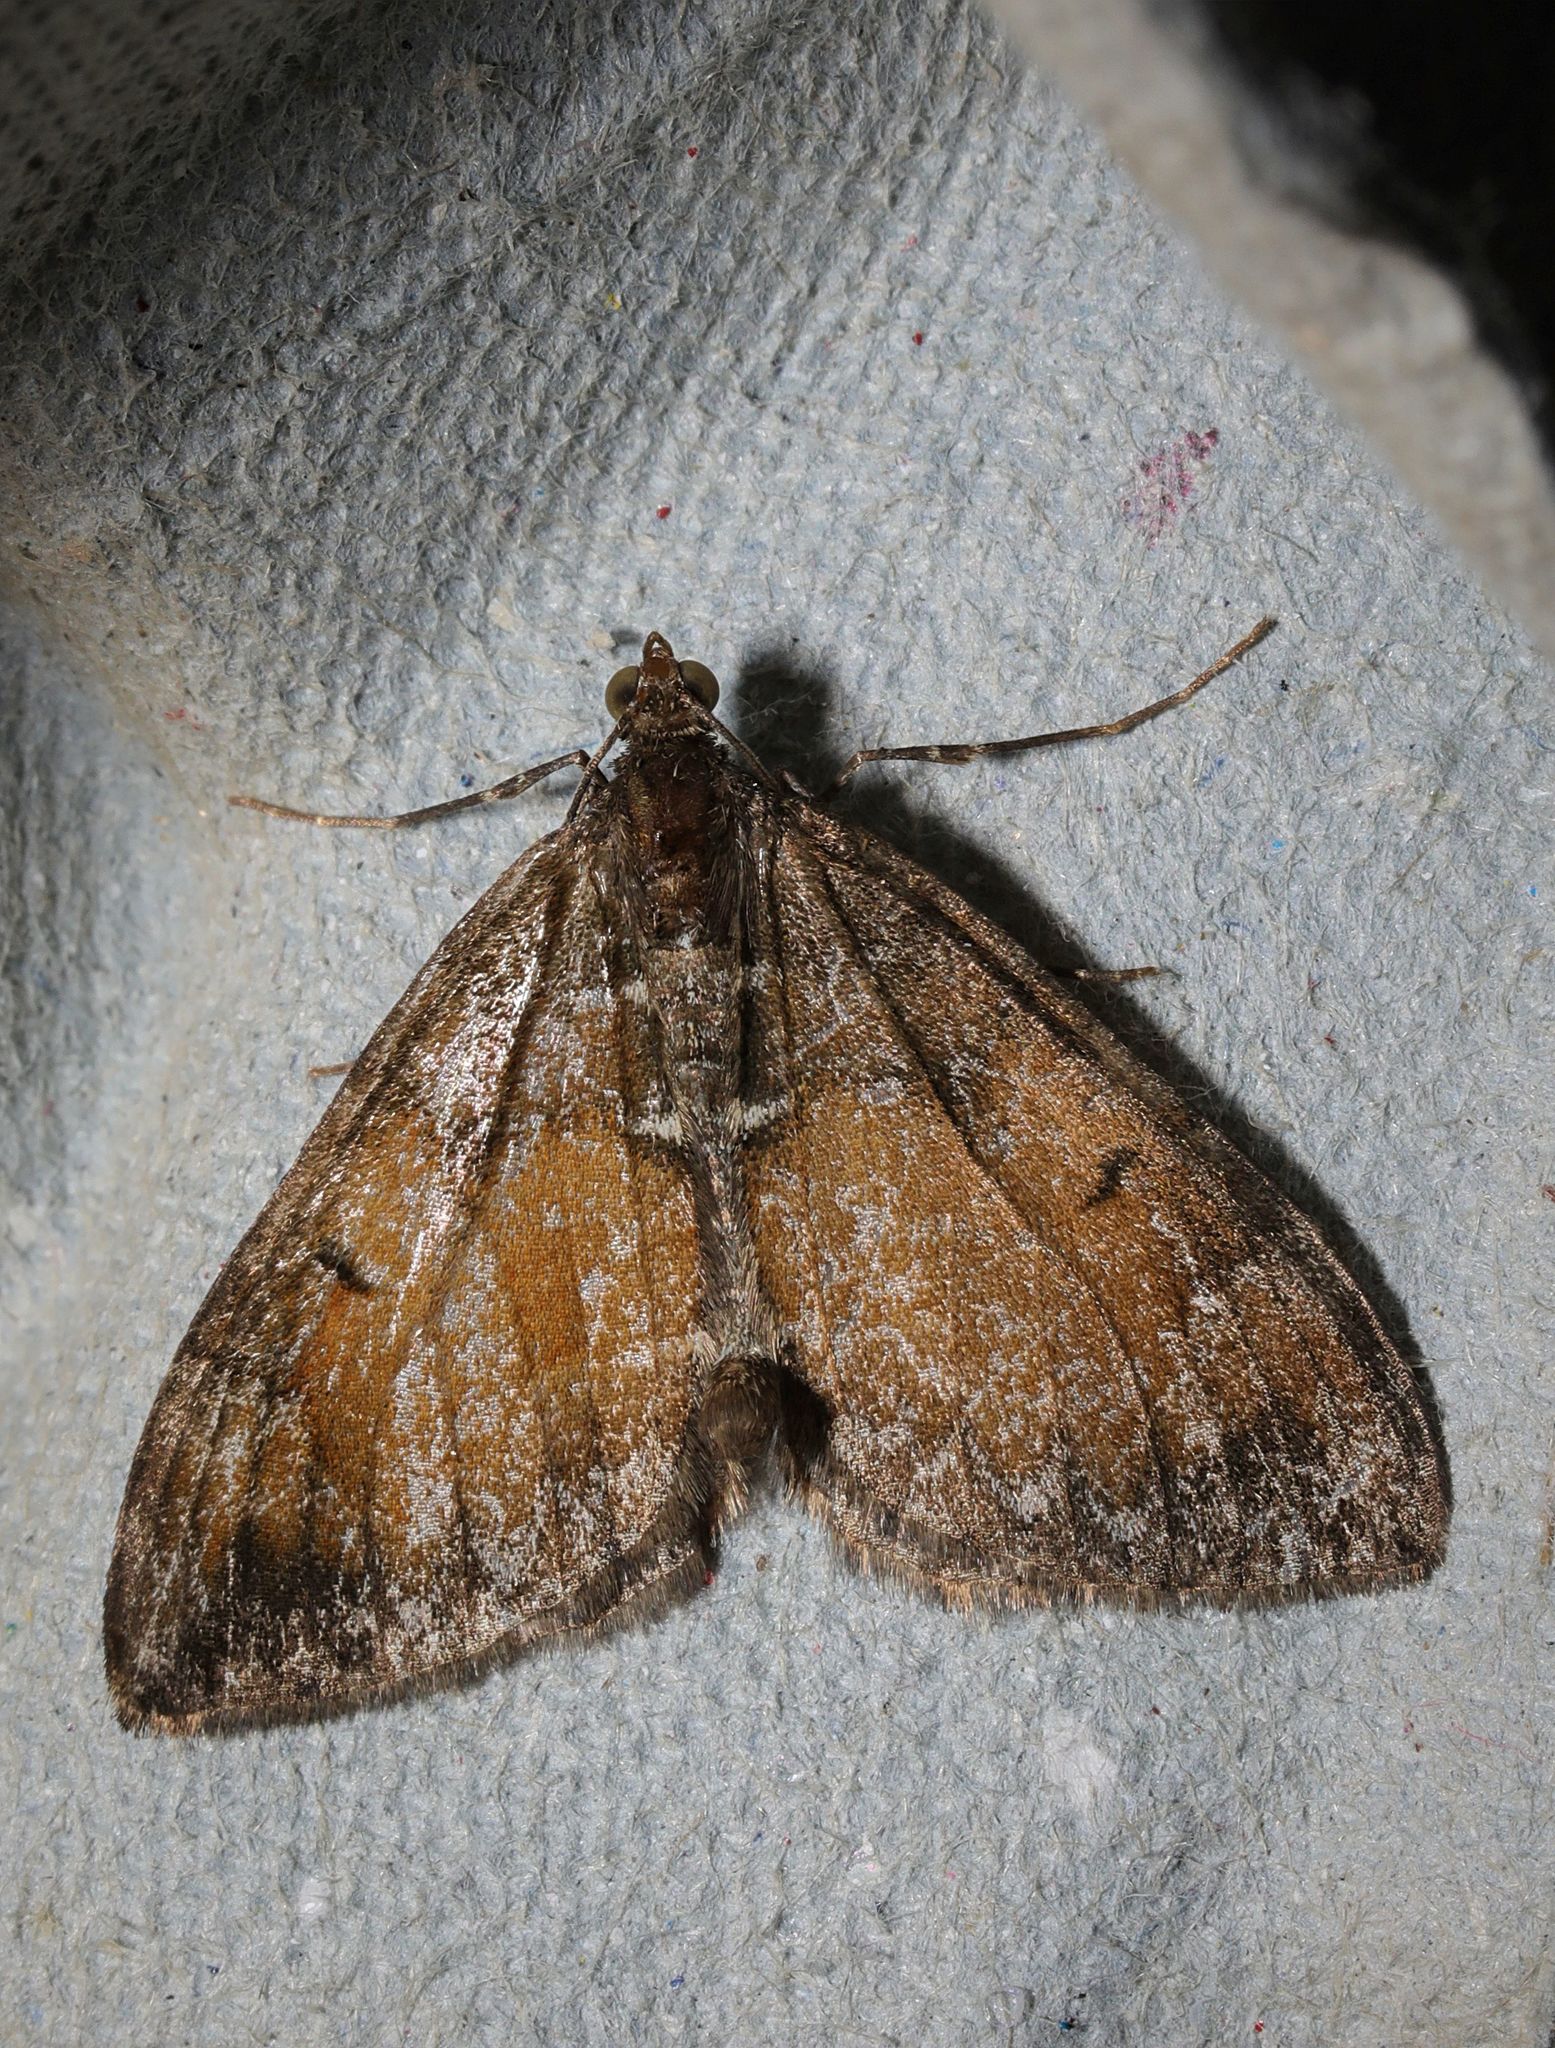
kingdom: Animalia
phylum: Arthropoda
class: Insecta
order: Lepidoptera
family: Geometridae
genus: Dysstroma
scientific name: Dysstroma truncata
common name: Common marbled carpet
